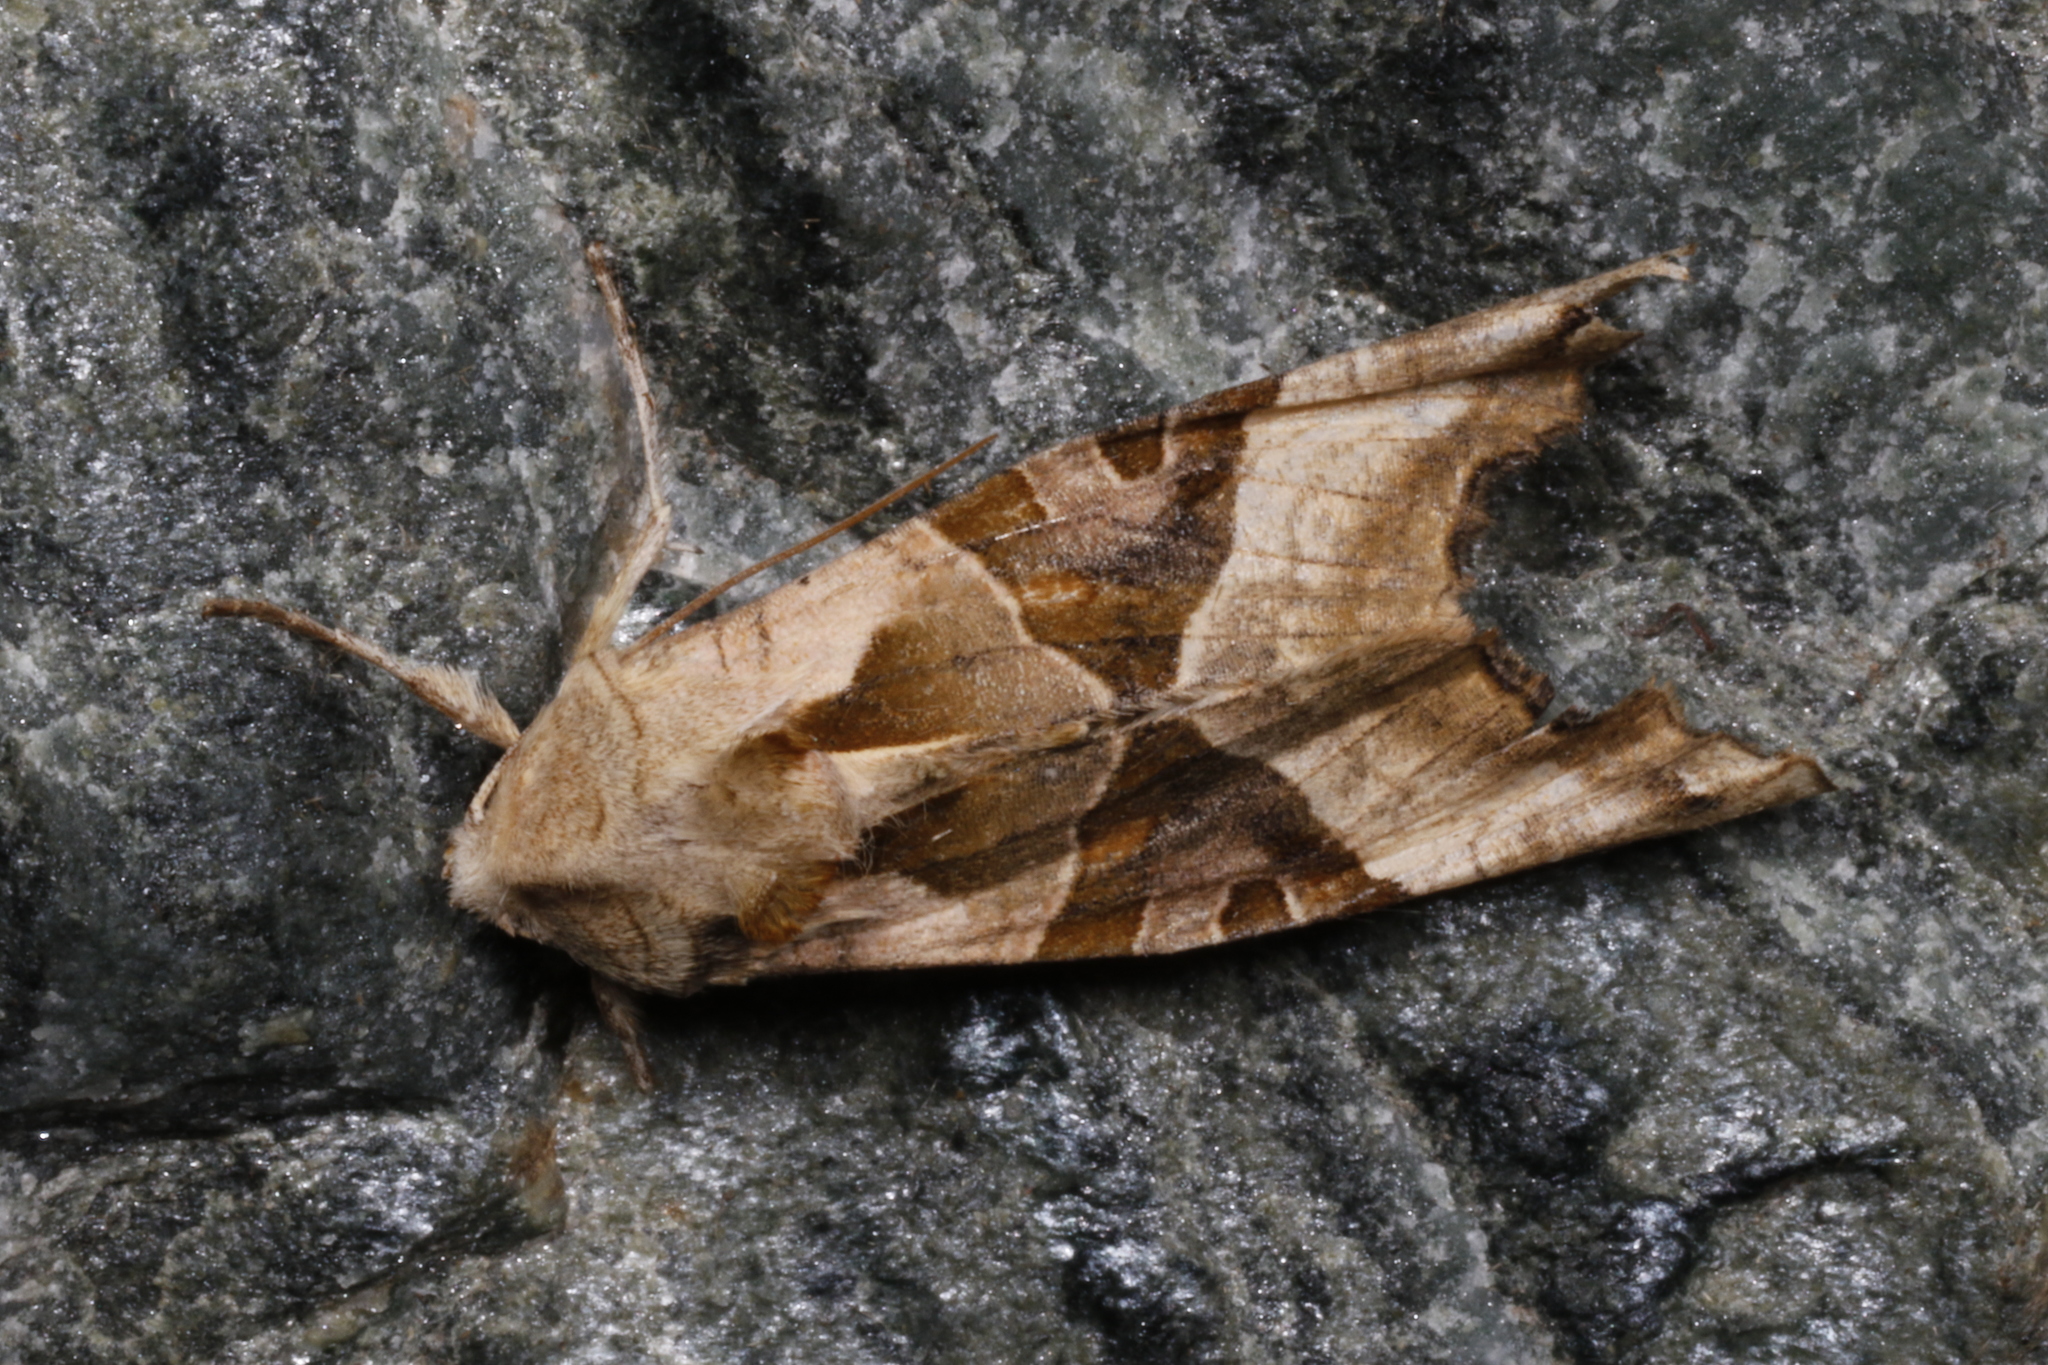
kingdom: Animalia
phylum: Arthropoda
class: Insecta
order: Lepidoptera
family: Noctuidae
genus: Phlogophora
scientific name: Phlogophora meticulosa
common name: Angle shades
